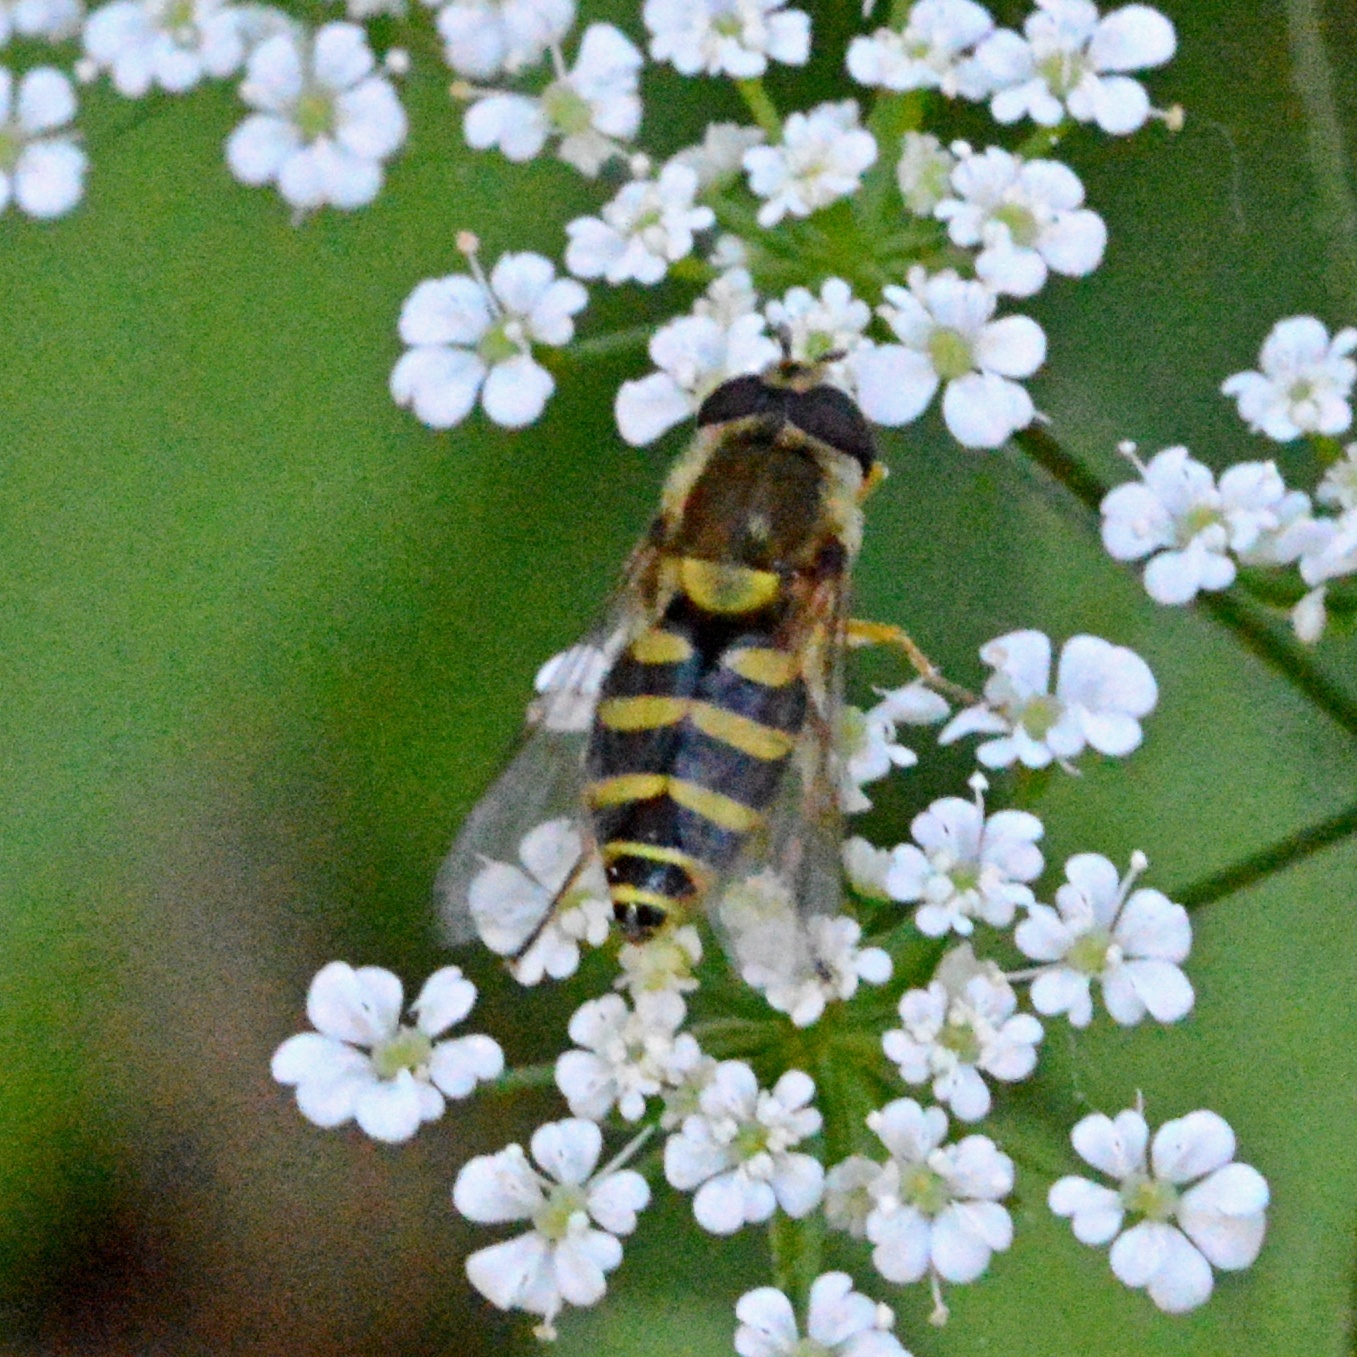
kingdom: Animalia
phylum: Arthropoda
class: Insecta
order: Diptera
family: Syrphidae
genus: Syrphus
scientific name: Syrphus
